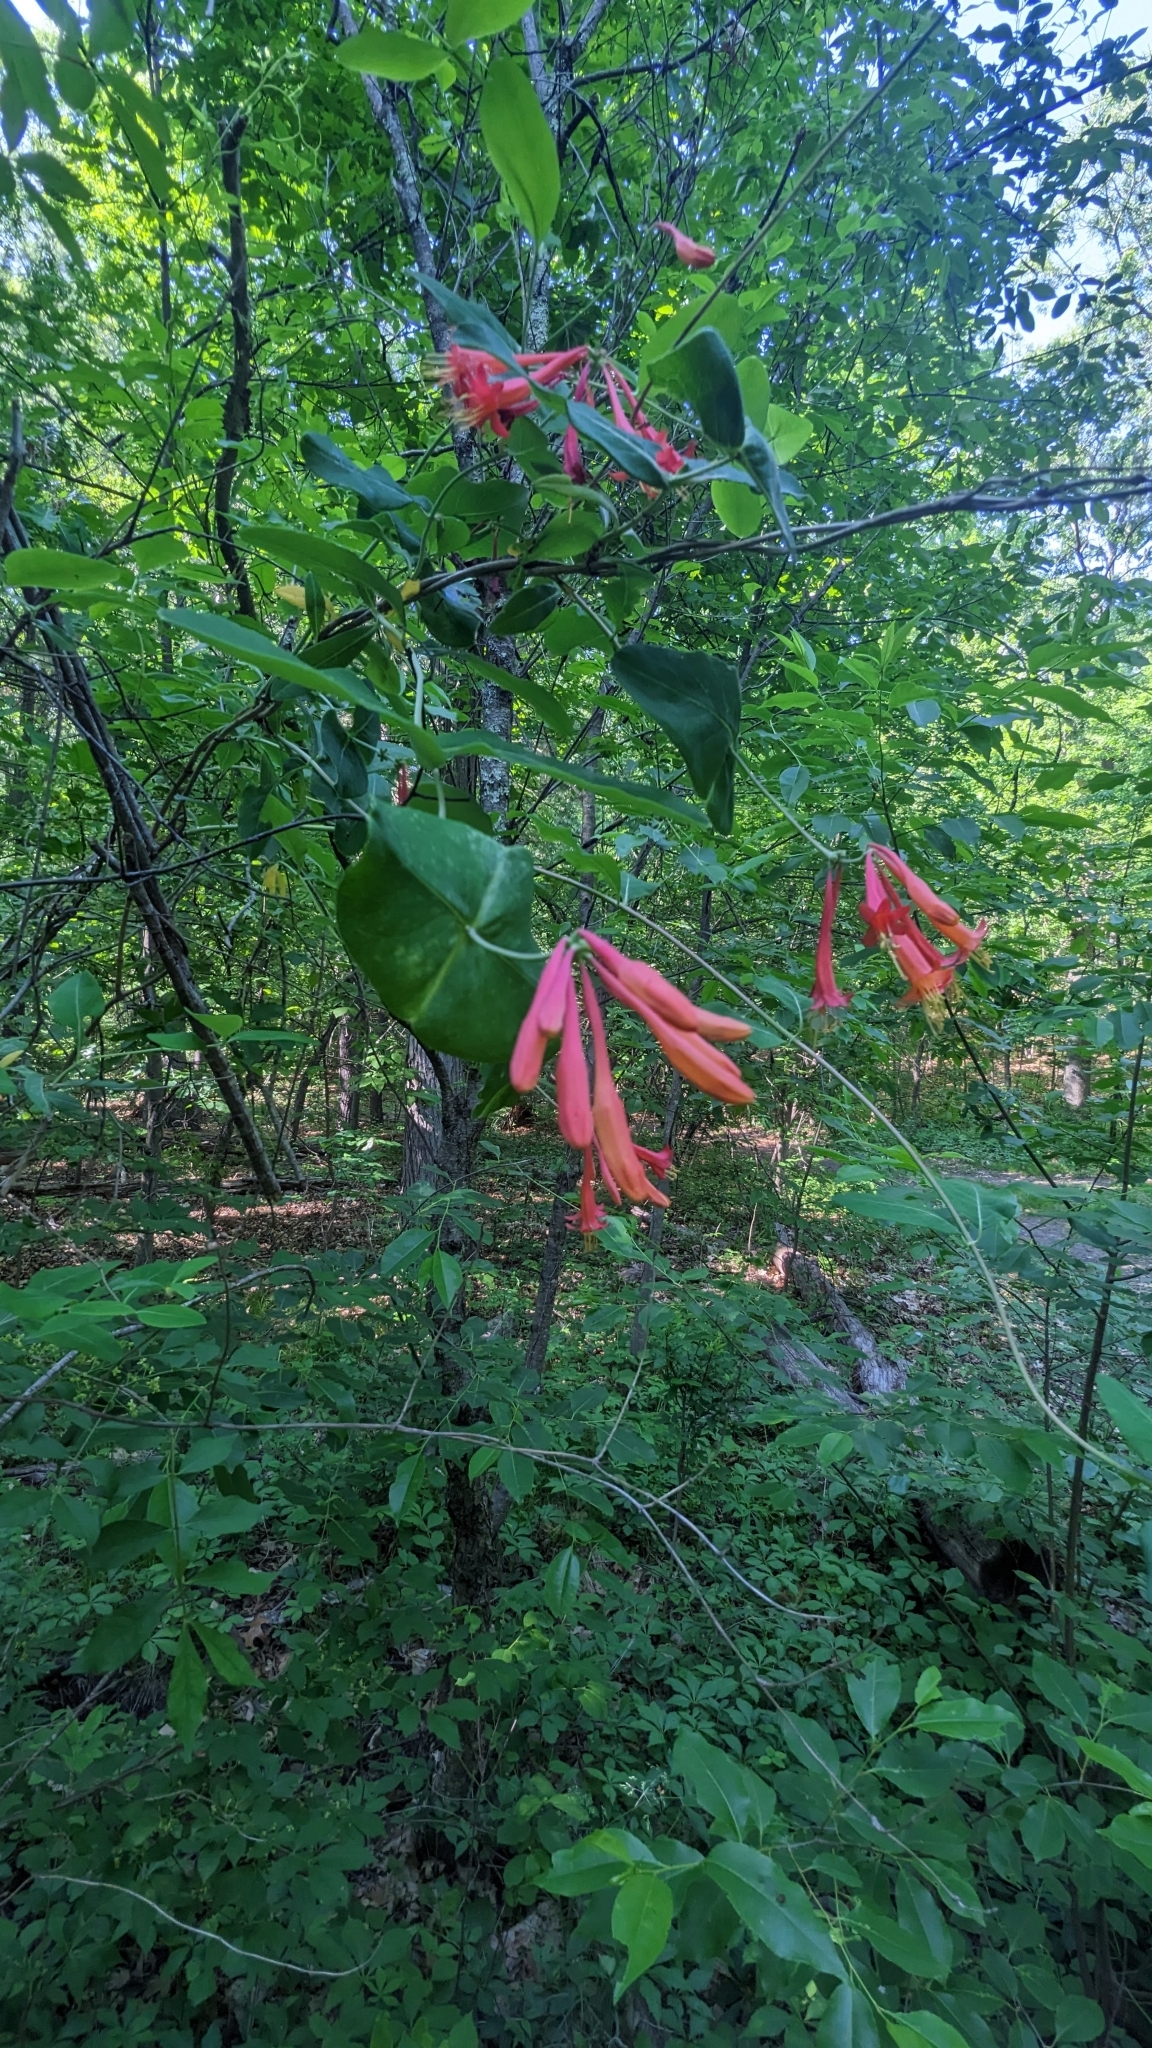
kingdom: Plantae
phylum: Tracheophyta
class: Magnoliopsida
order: Dipsacales
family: Caprifoliaceae
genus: Lonicera
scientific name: Lonicera sempervirens
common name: Coral honeysuckle
